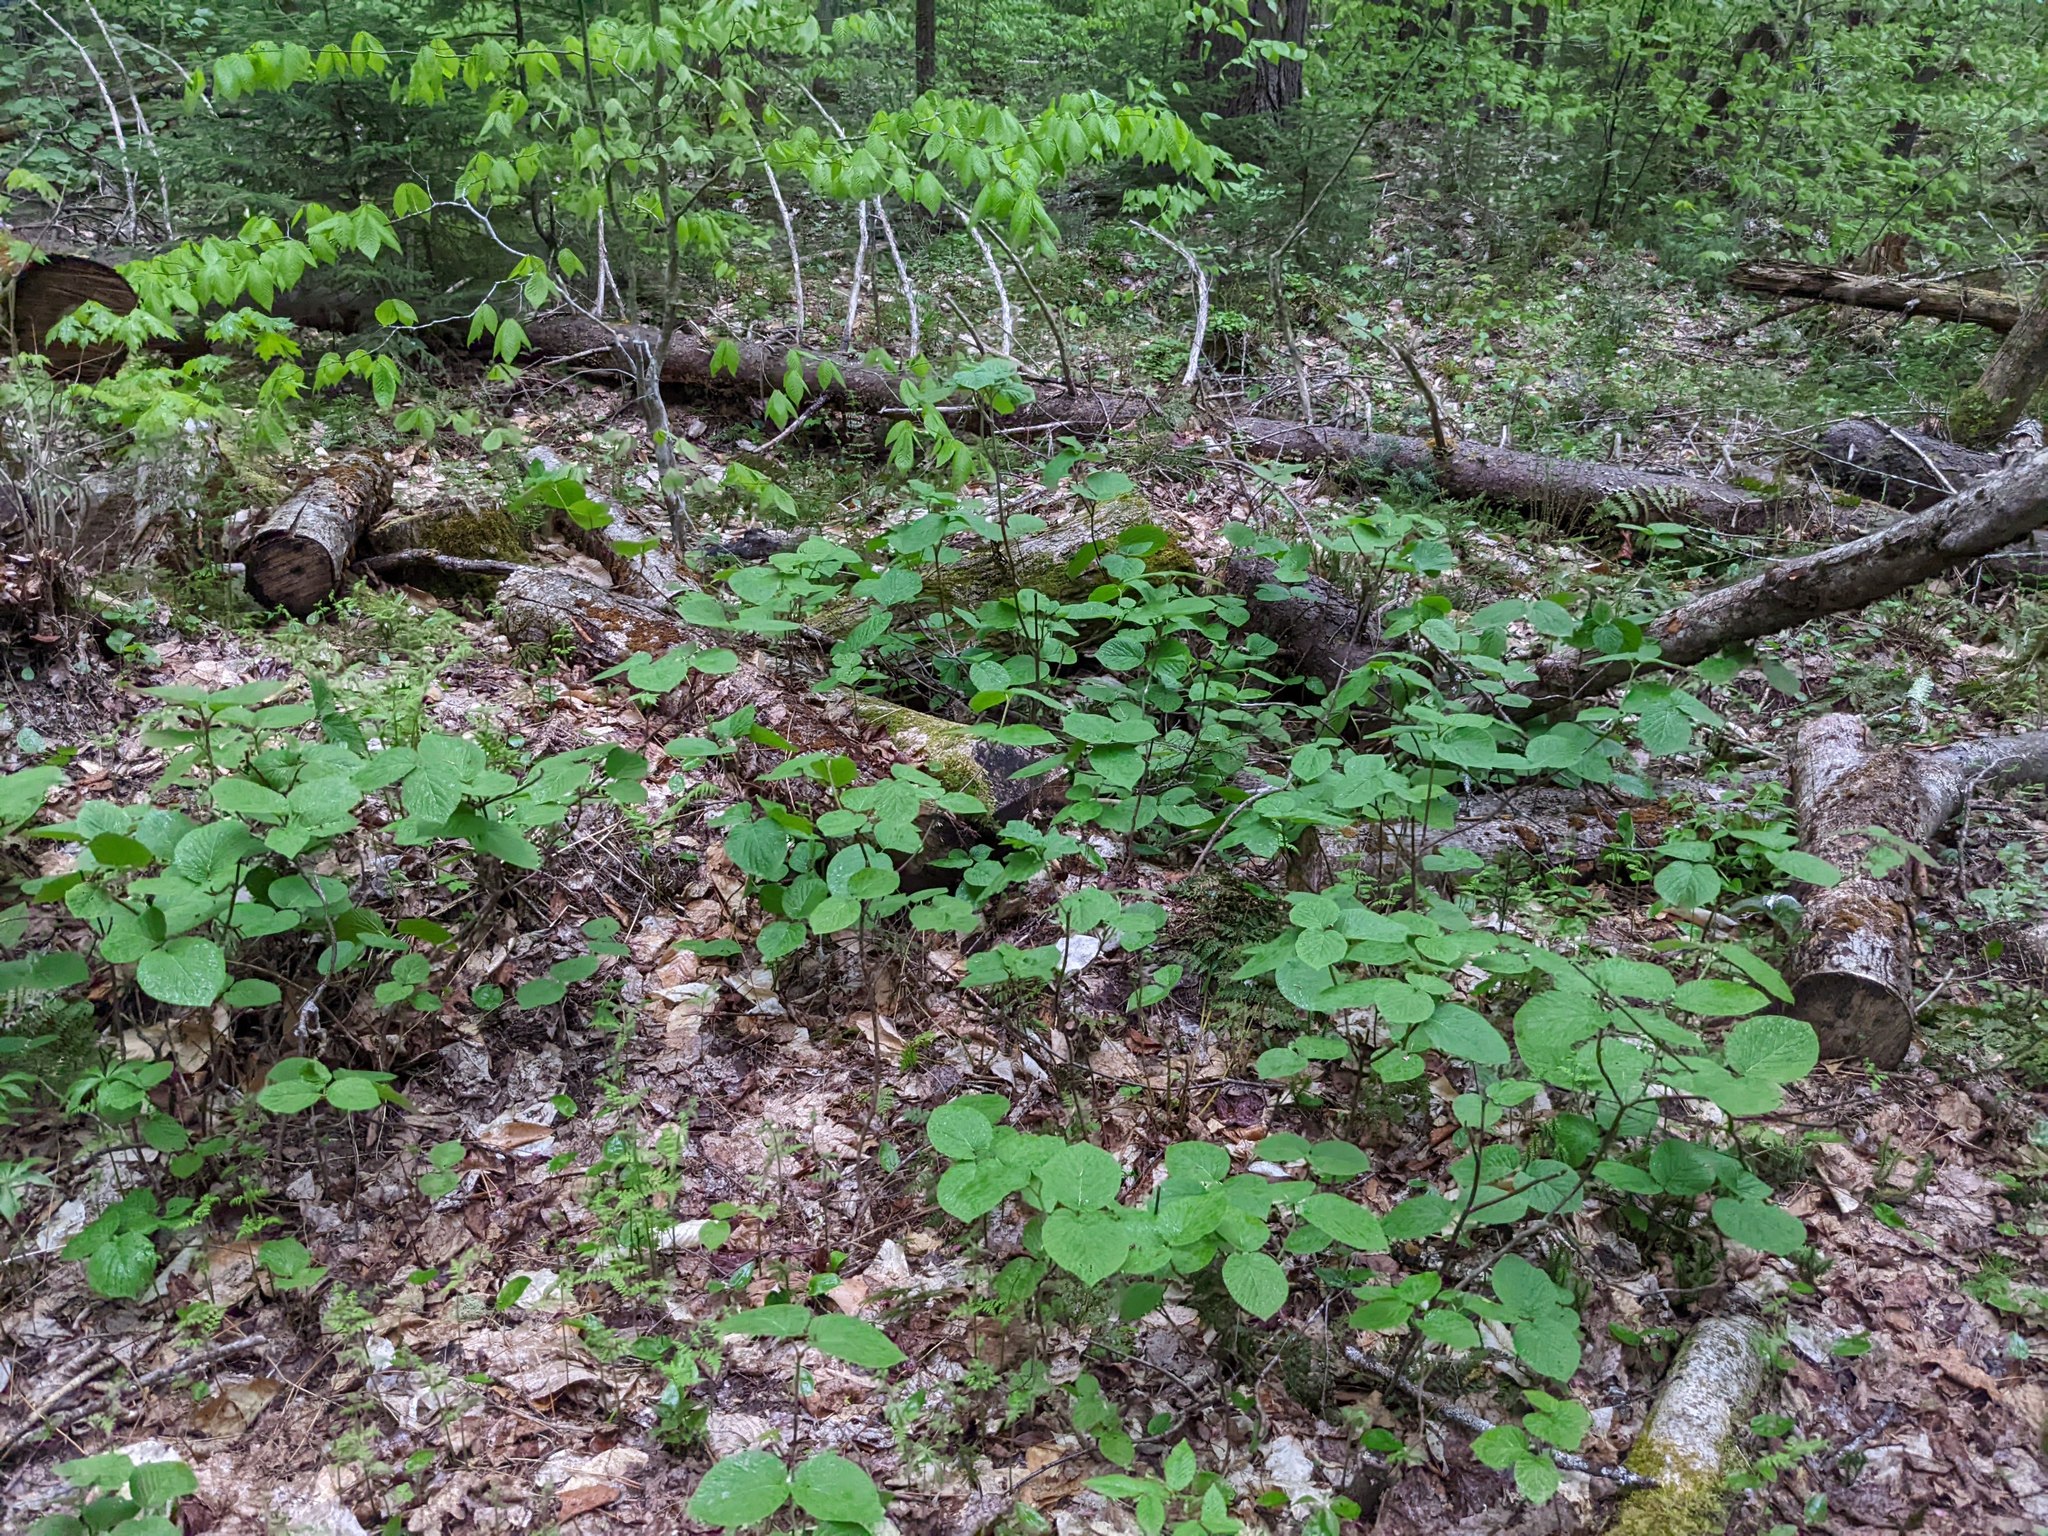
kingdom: Plantae
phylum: Tracheophyta
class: Magnoliopsida
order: Dipsacales
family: Viburnaceae
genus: Viburnum
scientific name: Viburnum lantanoides
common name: Hobblebush
